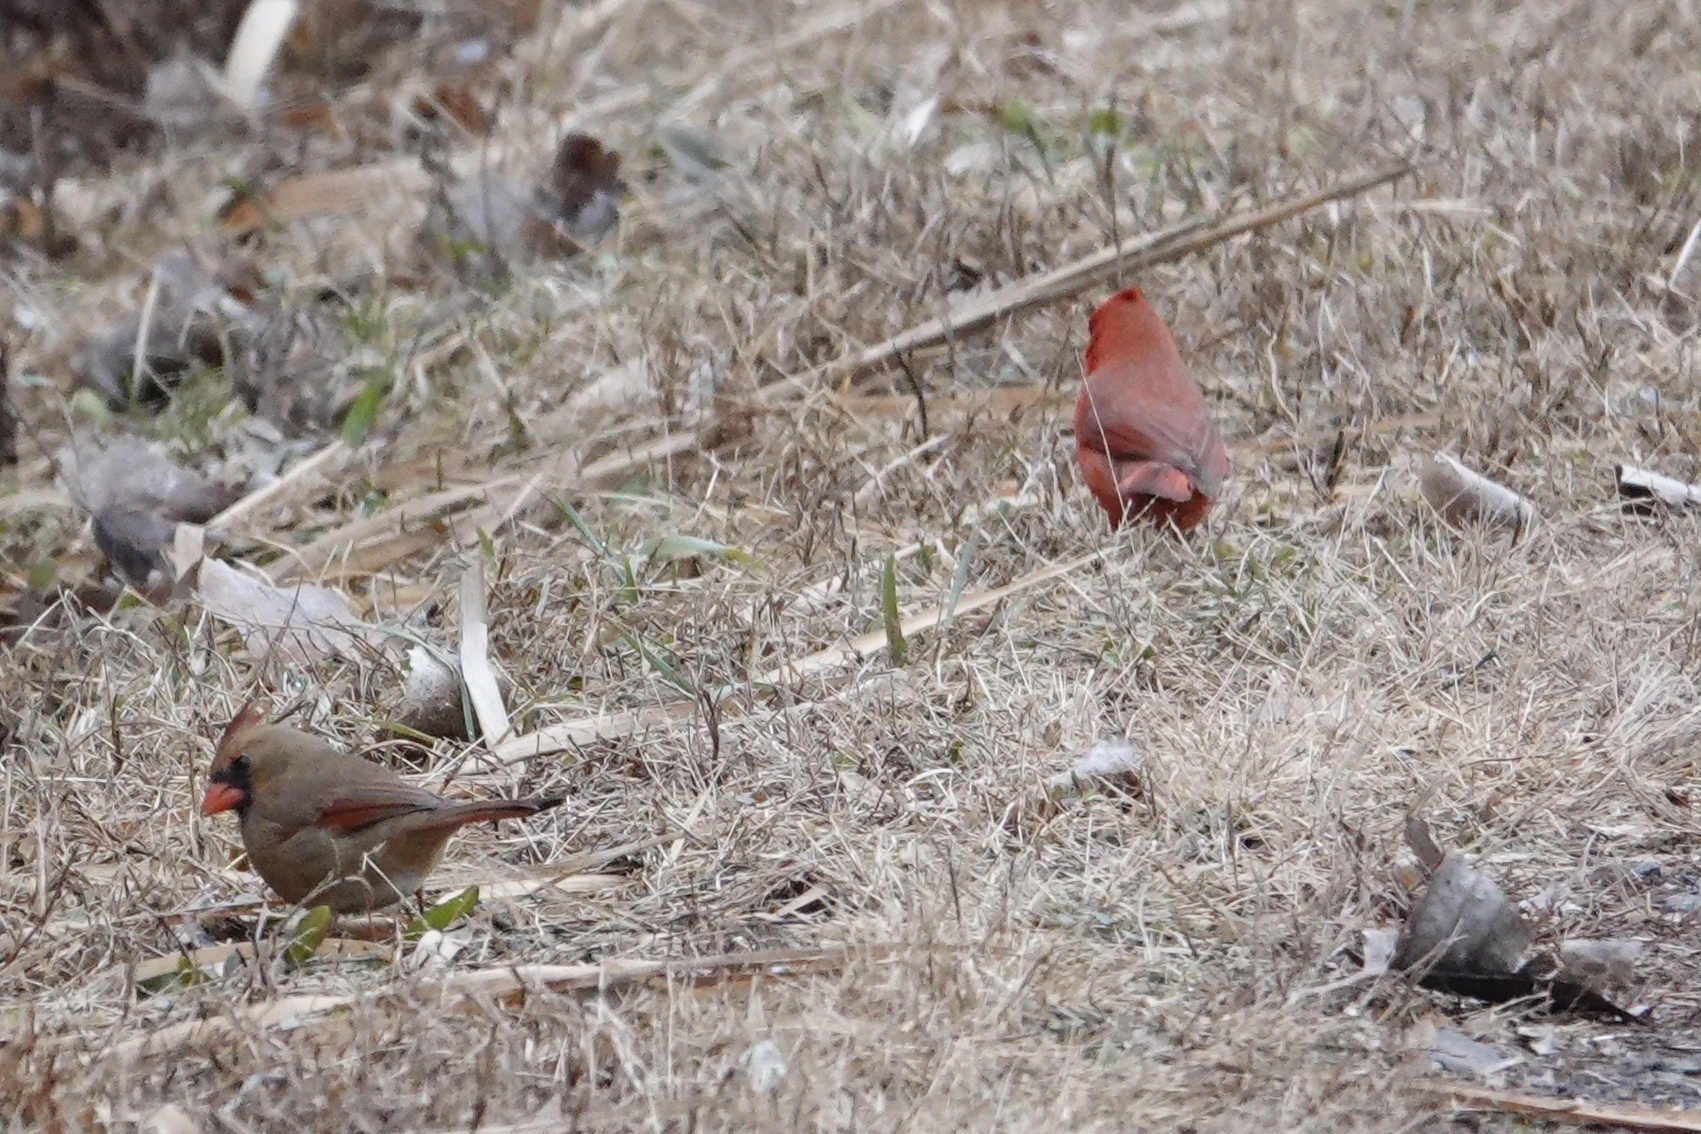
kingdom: Animalia
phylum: Chordata
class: Aves
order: Passeriformes
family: Cardinalidae
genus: Cardinalis
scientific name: Cardinalis cardinalis
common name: Northern cardinal
